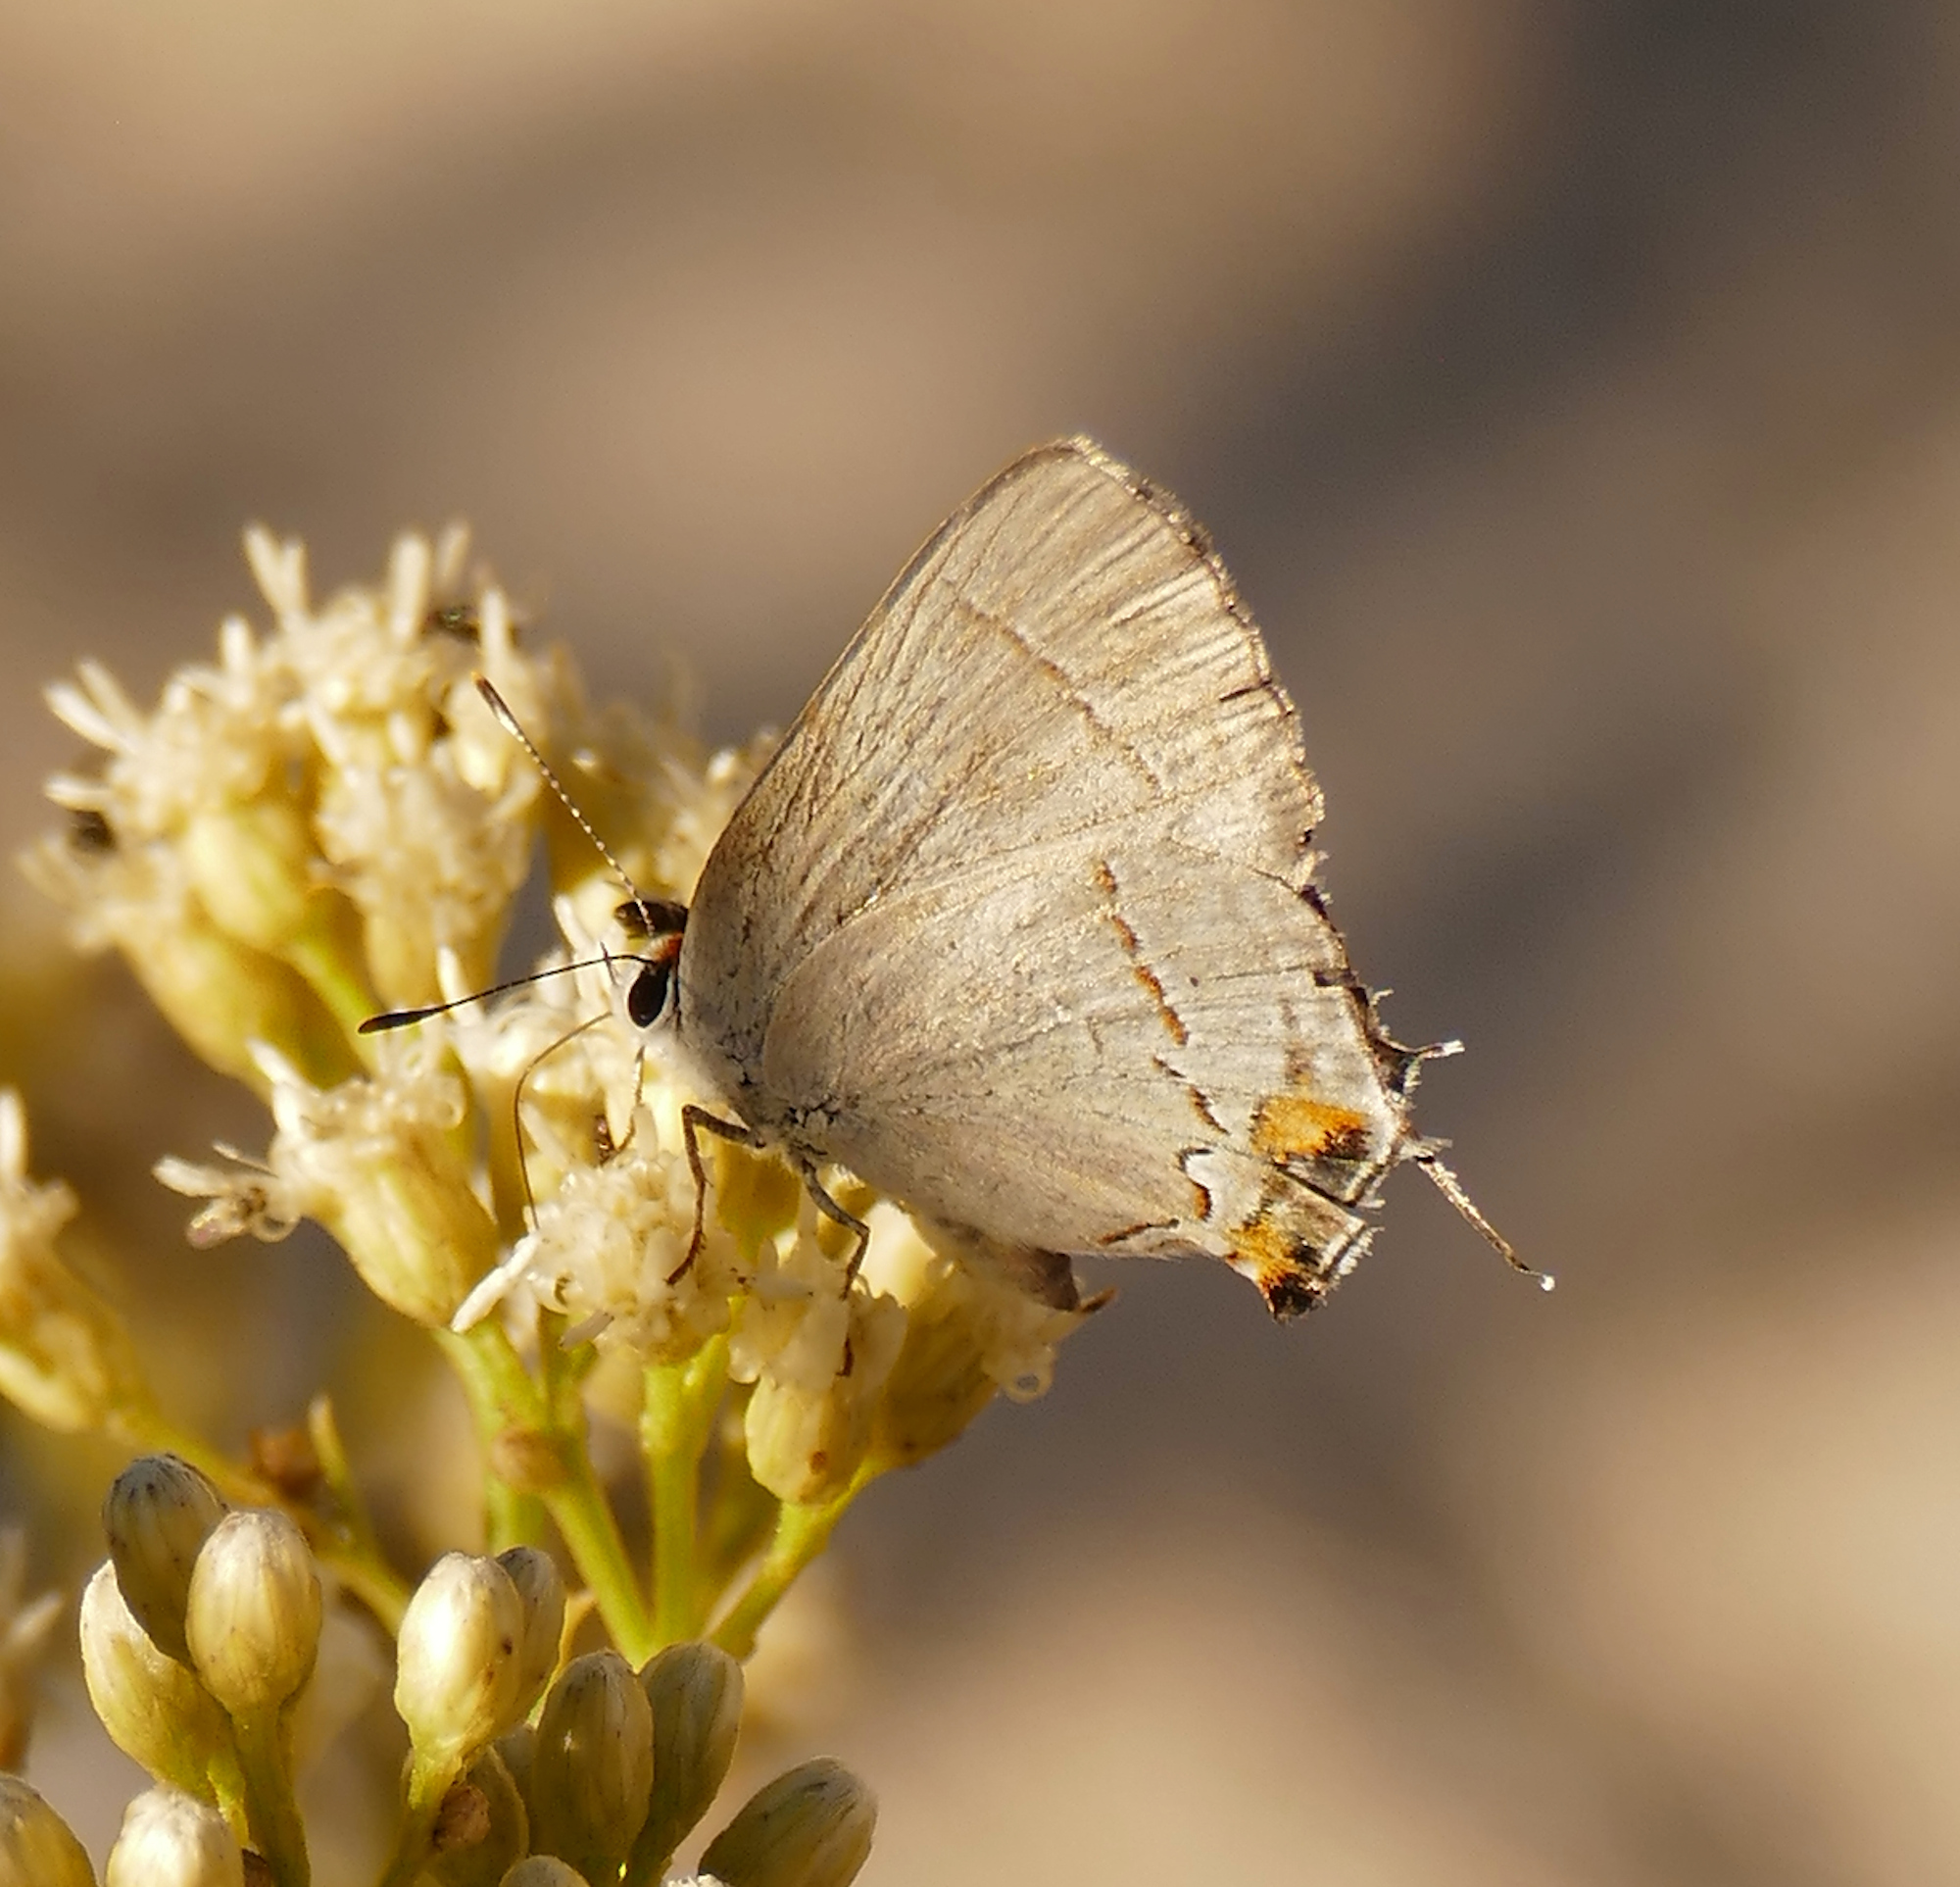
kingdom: Animalia
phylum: Arthropoda
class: Insecta
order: Lepidoptera
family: Lycaenidae
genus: Strymon
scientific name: Strymon melinus
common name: Gray hairstreak
